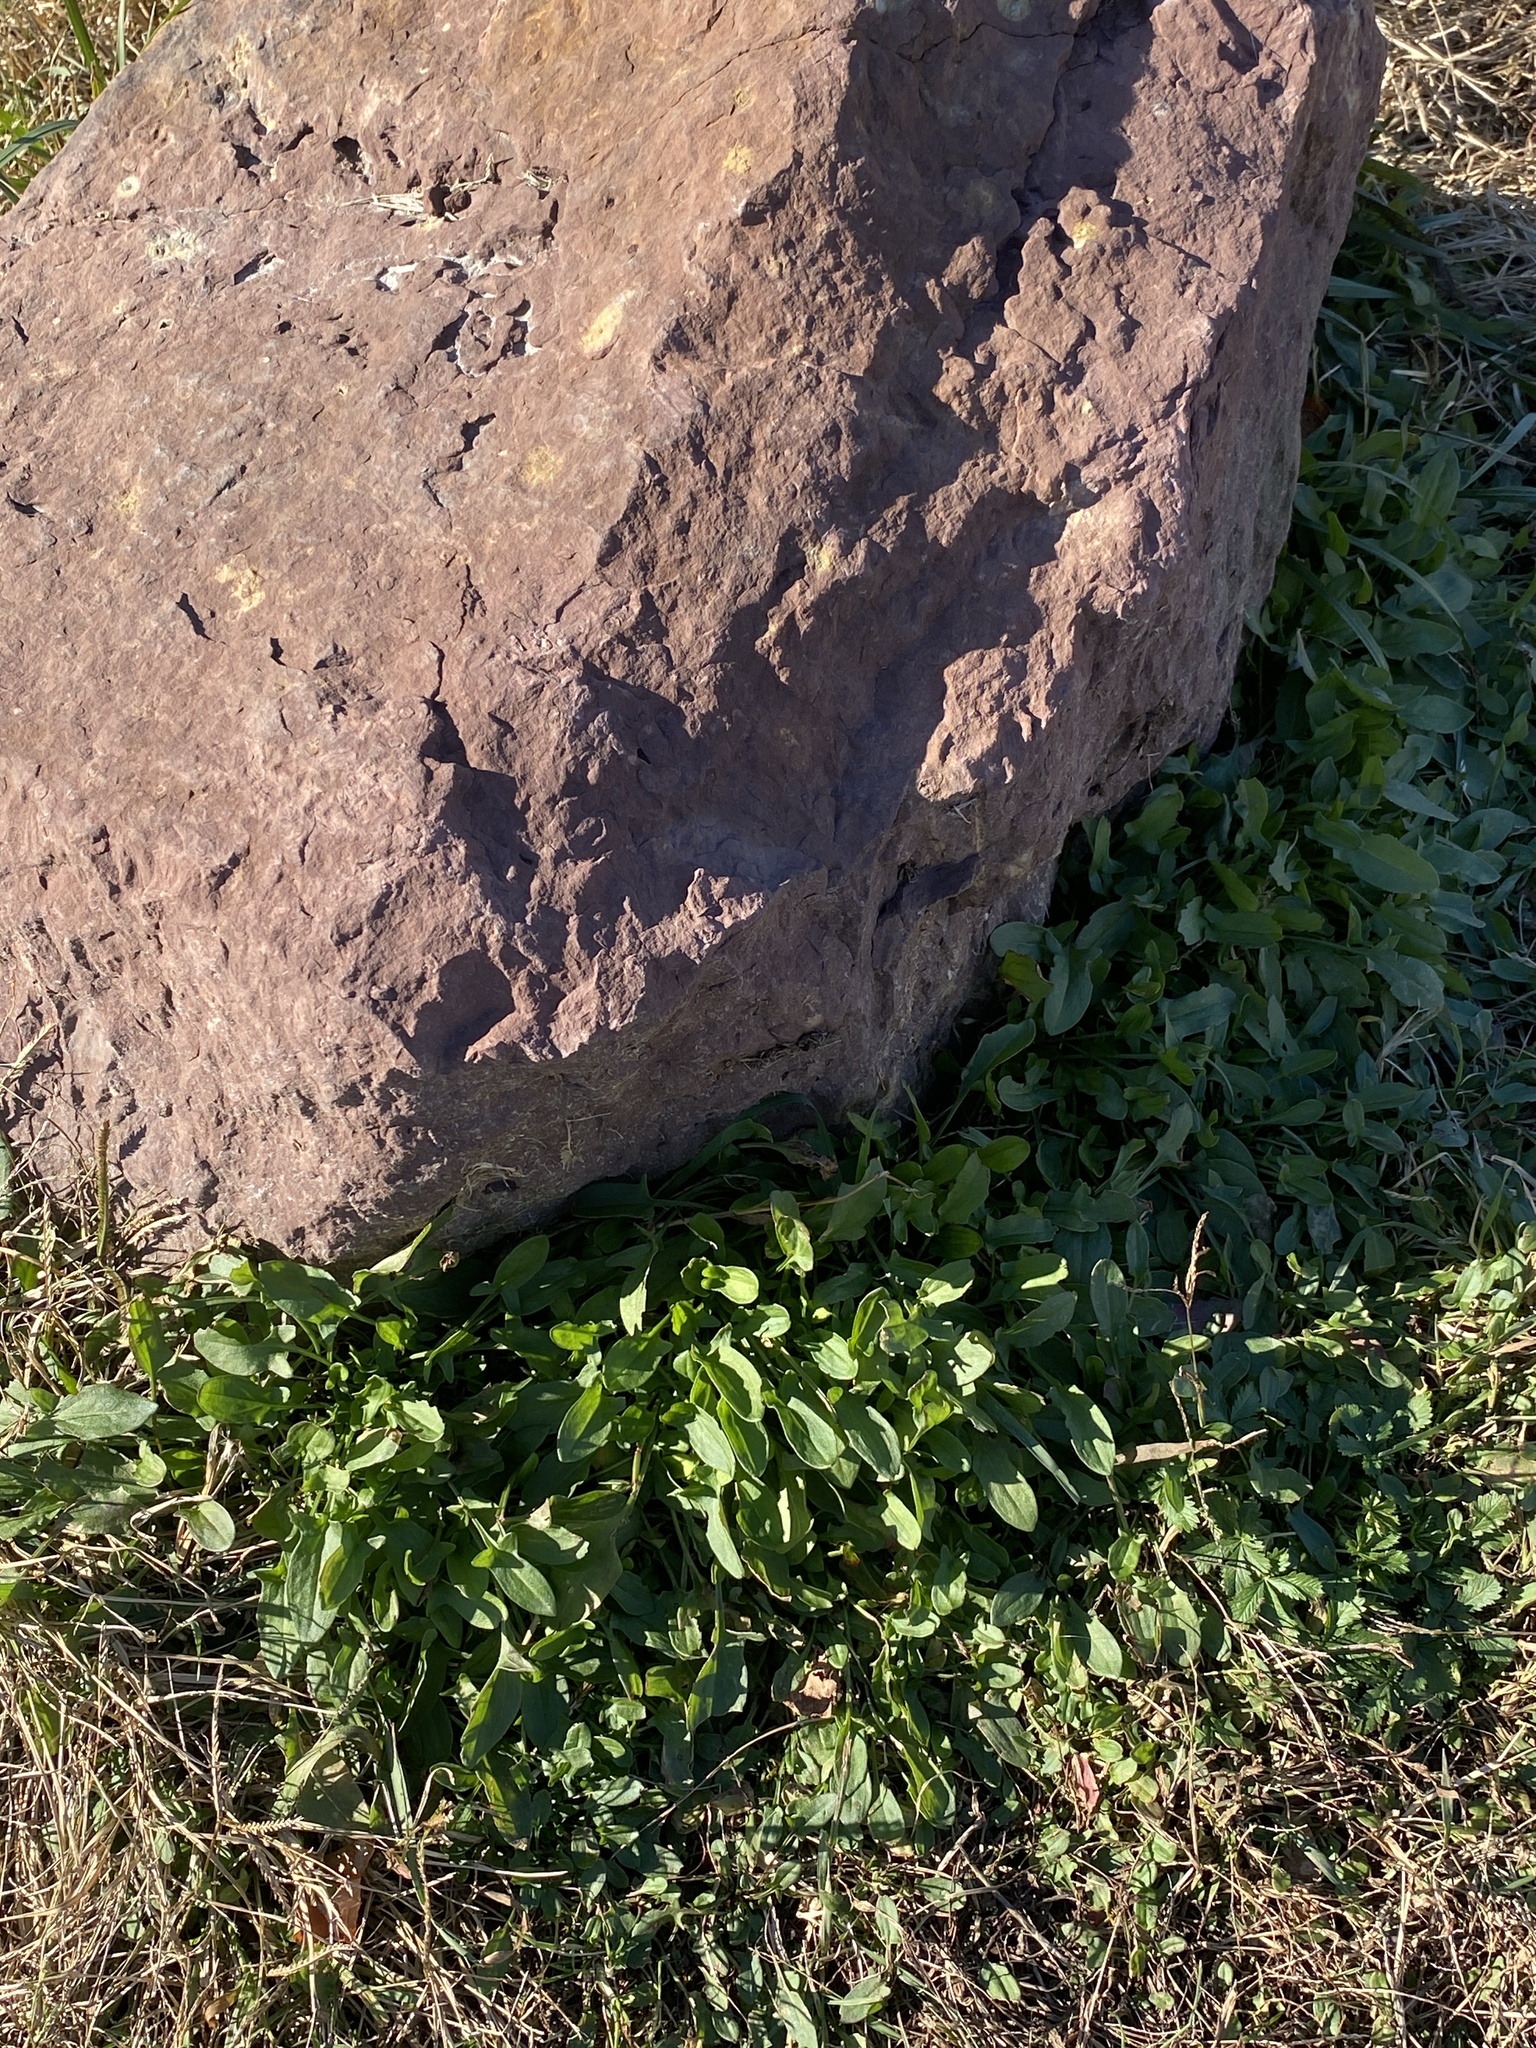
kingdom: Plantae
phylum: Tracheophyta
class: Magnoliopsida
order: Caryophyllales
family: Polygonaceae
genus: Rumex
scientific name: Rumex acetosella
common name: Common sheep sorrel
